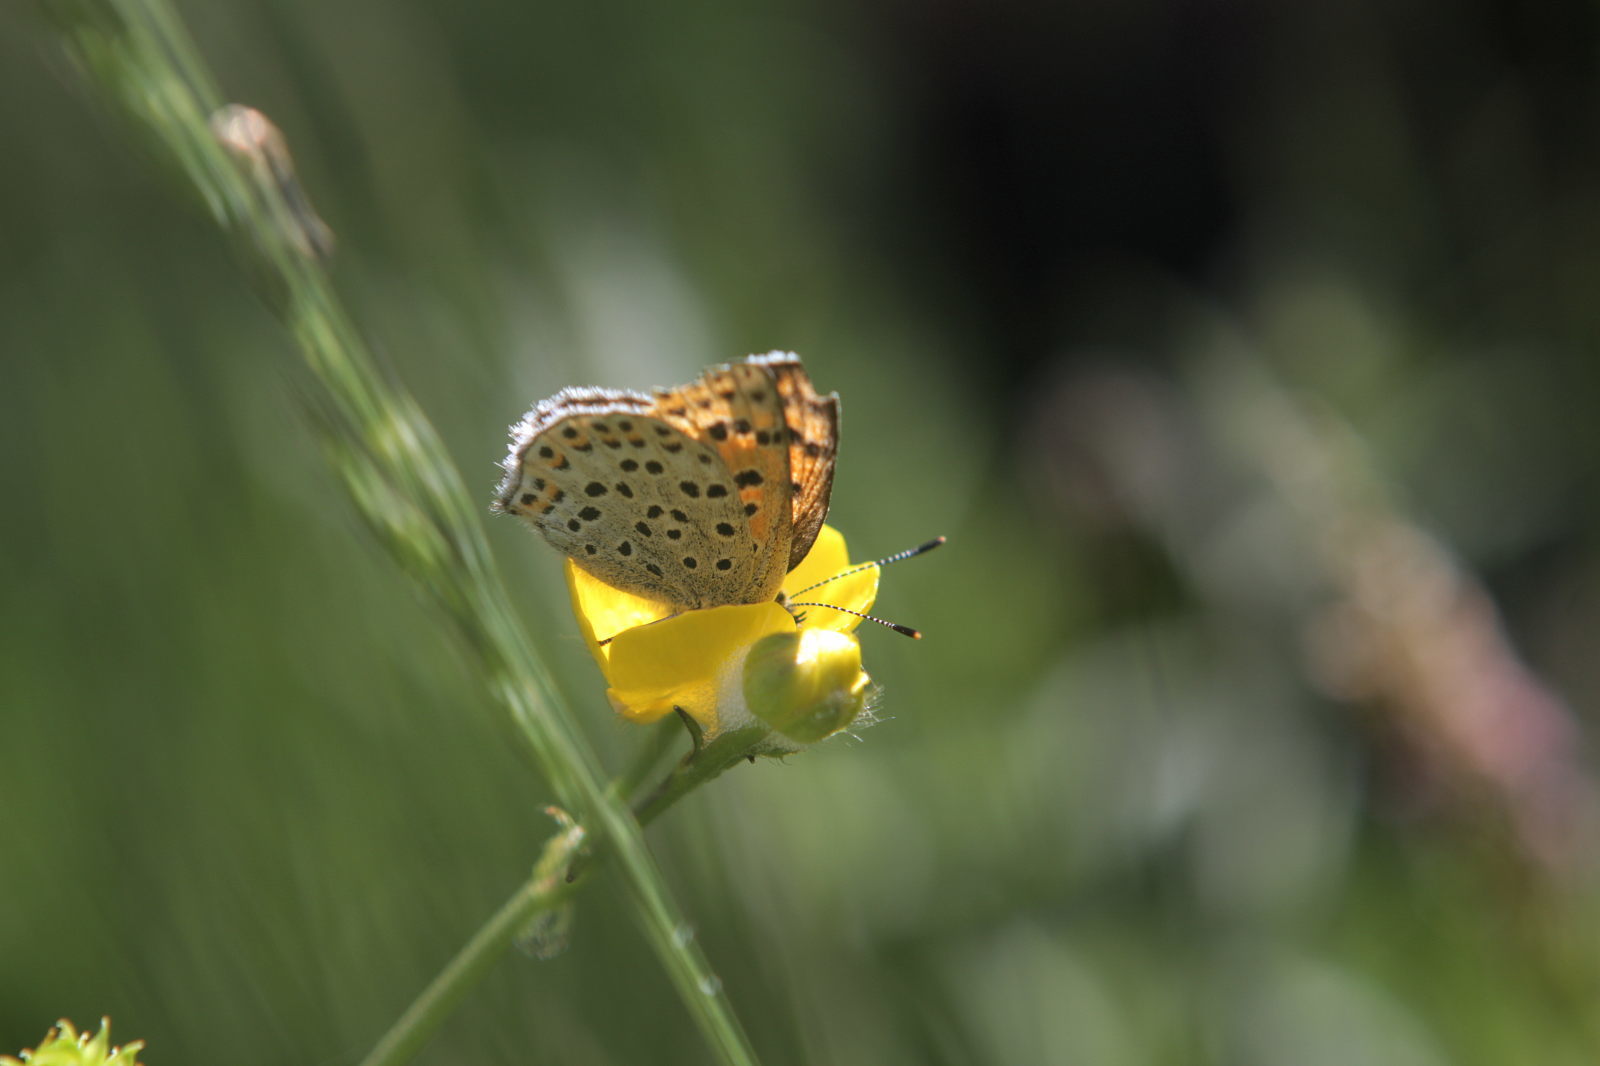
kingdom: Animalia
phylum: Arthropoda
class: Insecta
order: Lepidoptera
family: Lycaenidae
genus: Loweia
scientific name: Loweia tityrus
